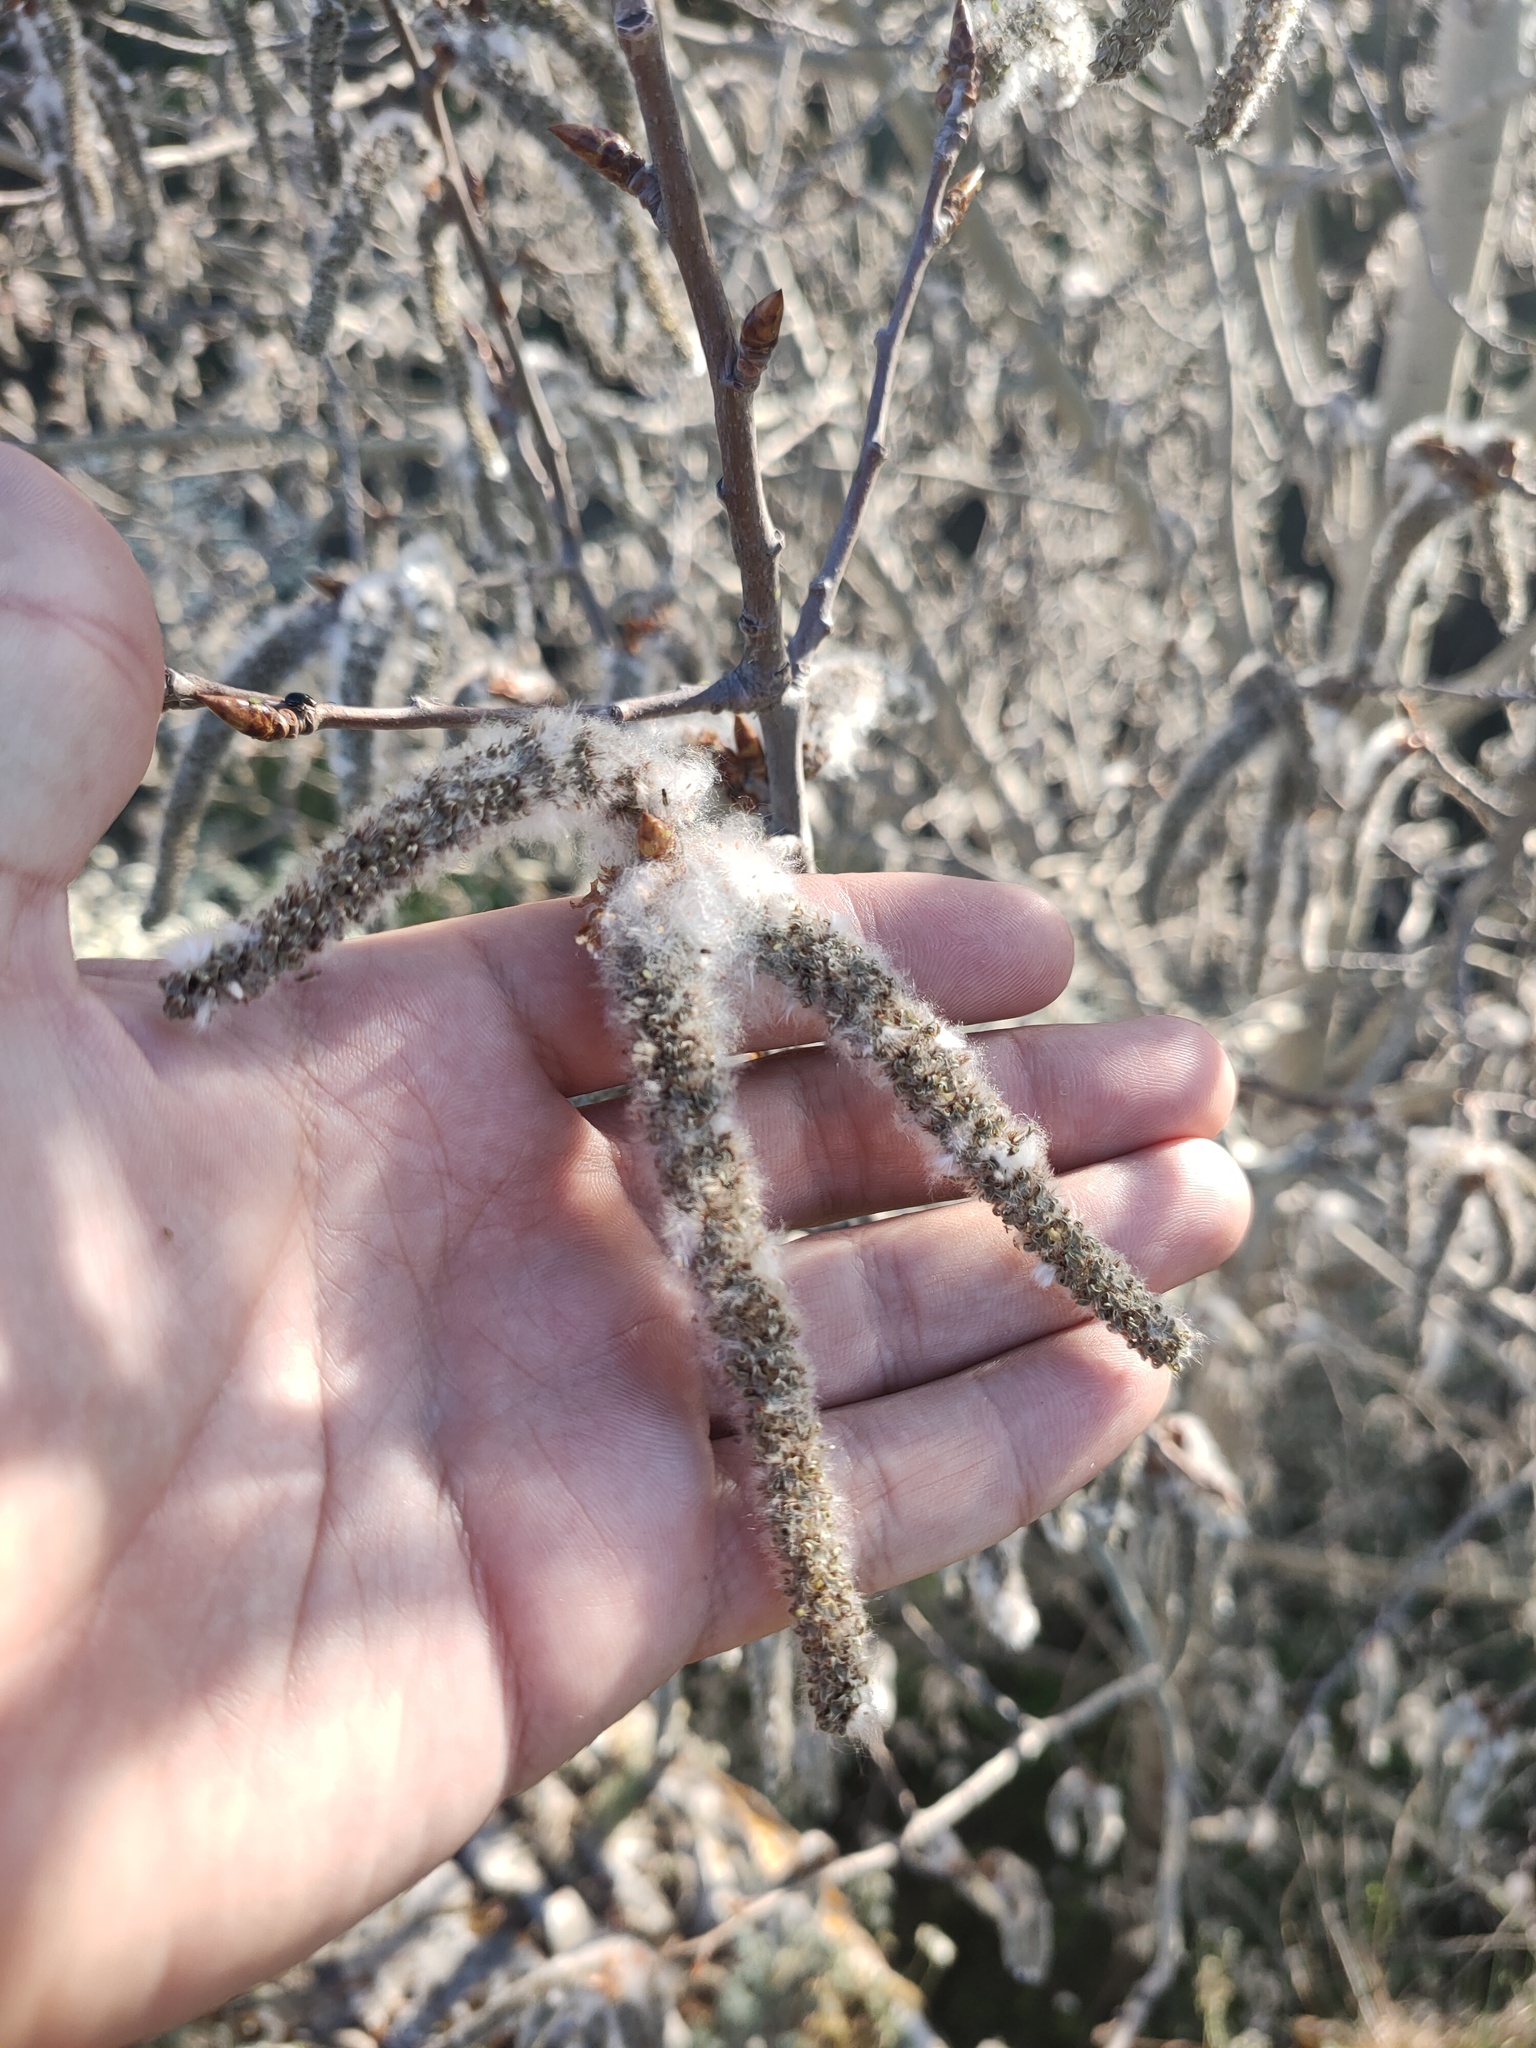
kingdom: Plantae
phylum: Tracheophyta
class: Magnoliopsida
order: Malpighiales
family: Salicaceae
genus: Populus
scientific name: Populus tremula
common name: European aspen
